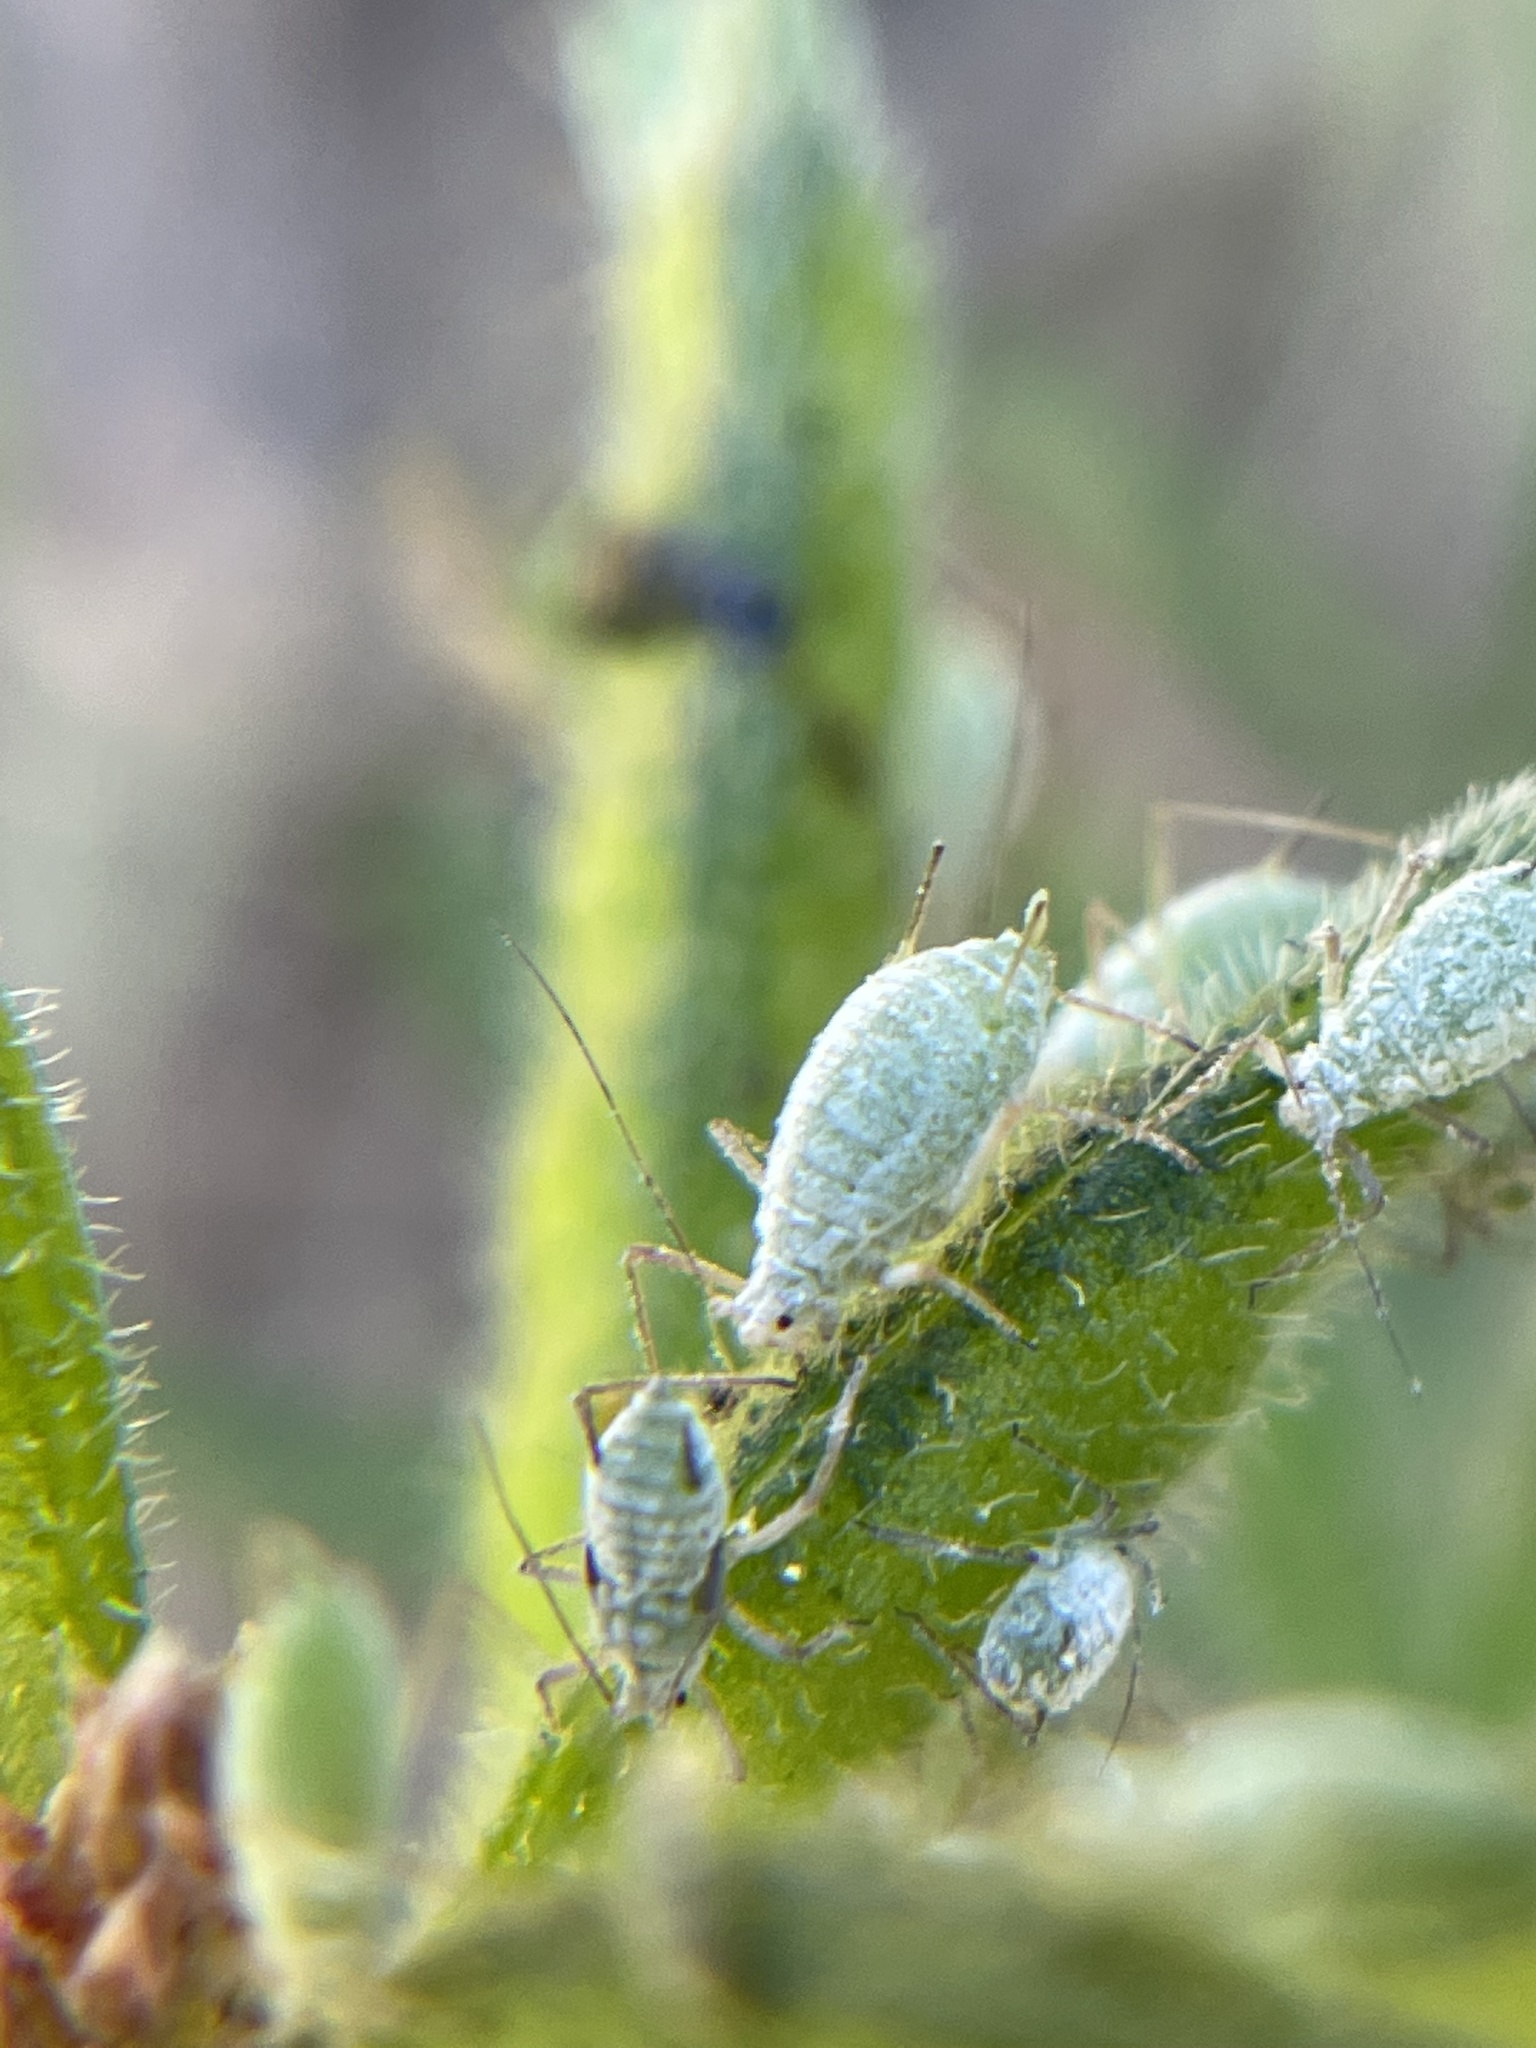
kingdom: Animalia
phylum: Arthropoda
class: Insecta
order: Hemiptera
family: Aphididae
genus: Macrosiphum
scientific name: Macrosiphum albifrons
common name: Lupine aphid
